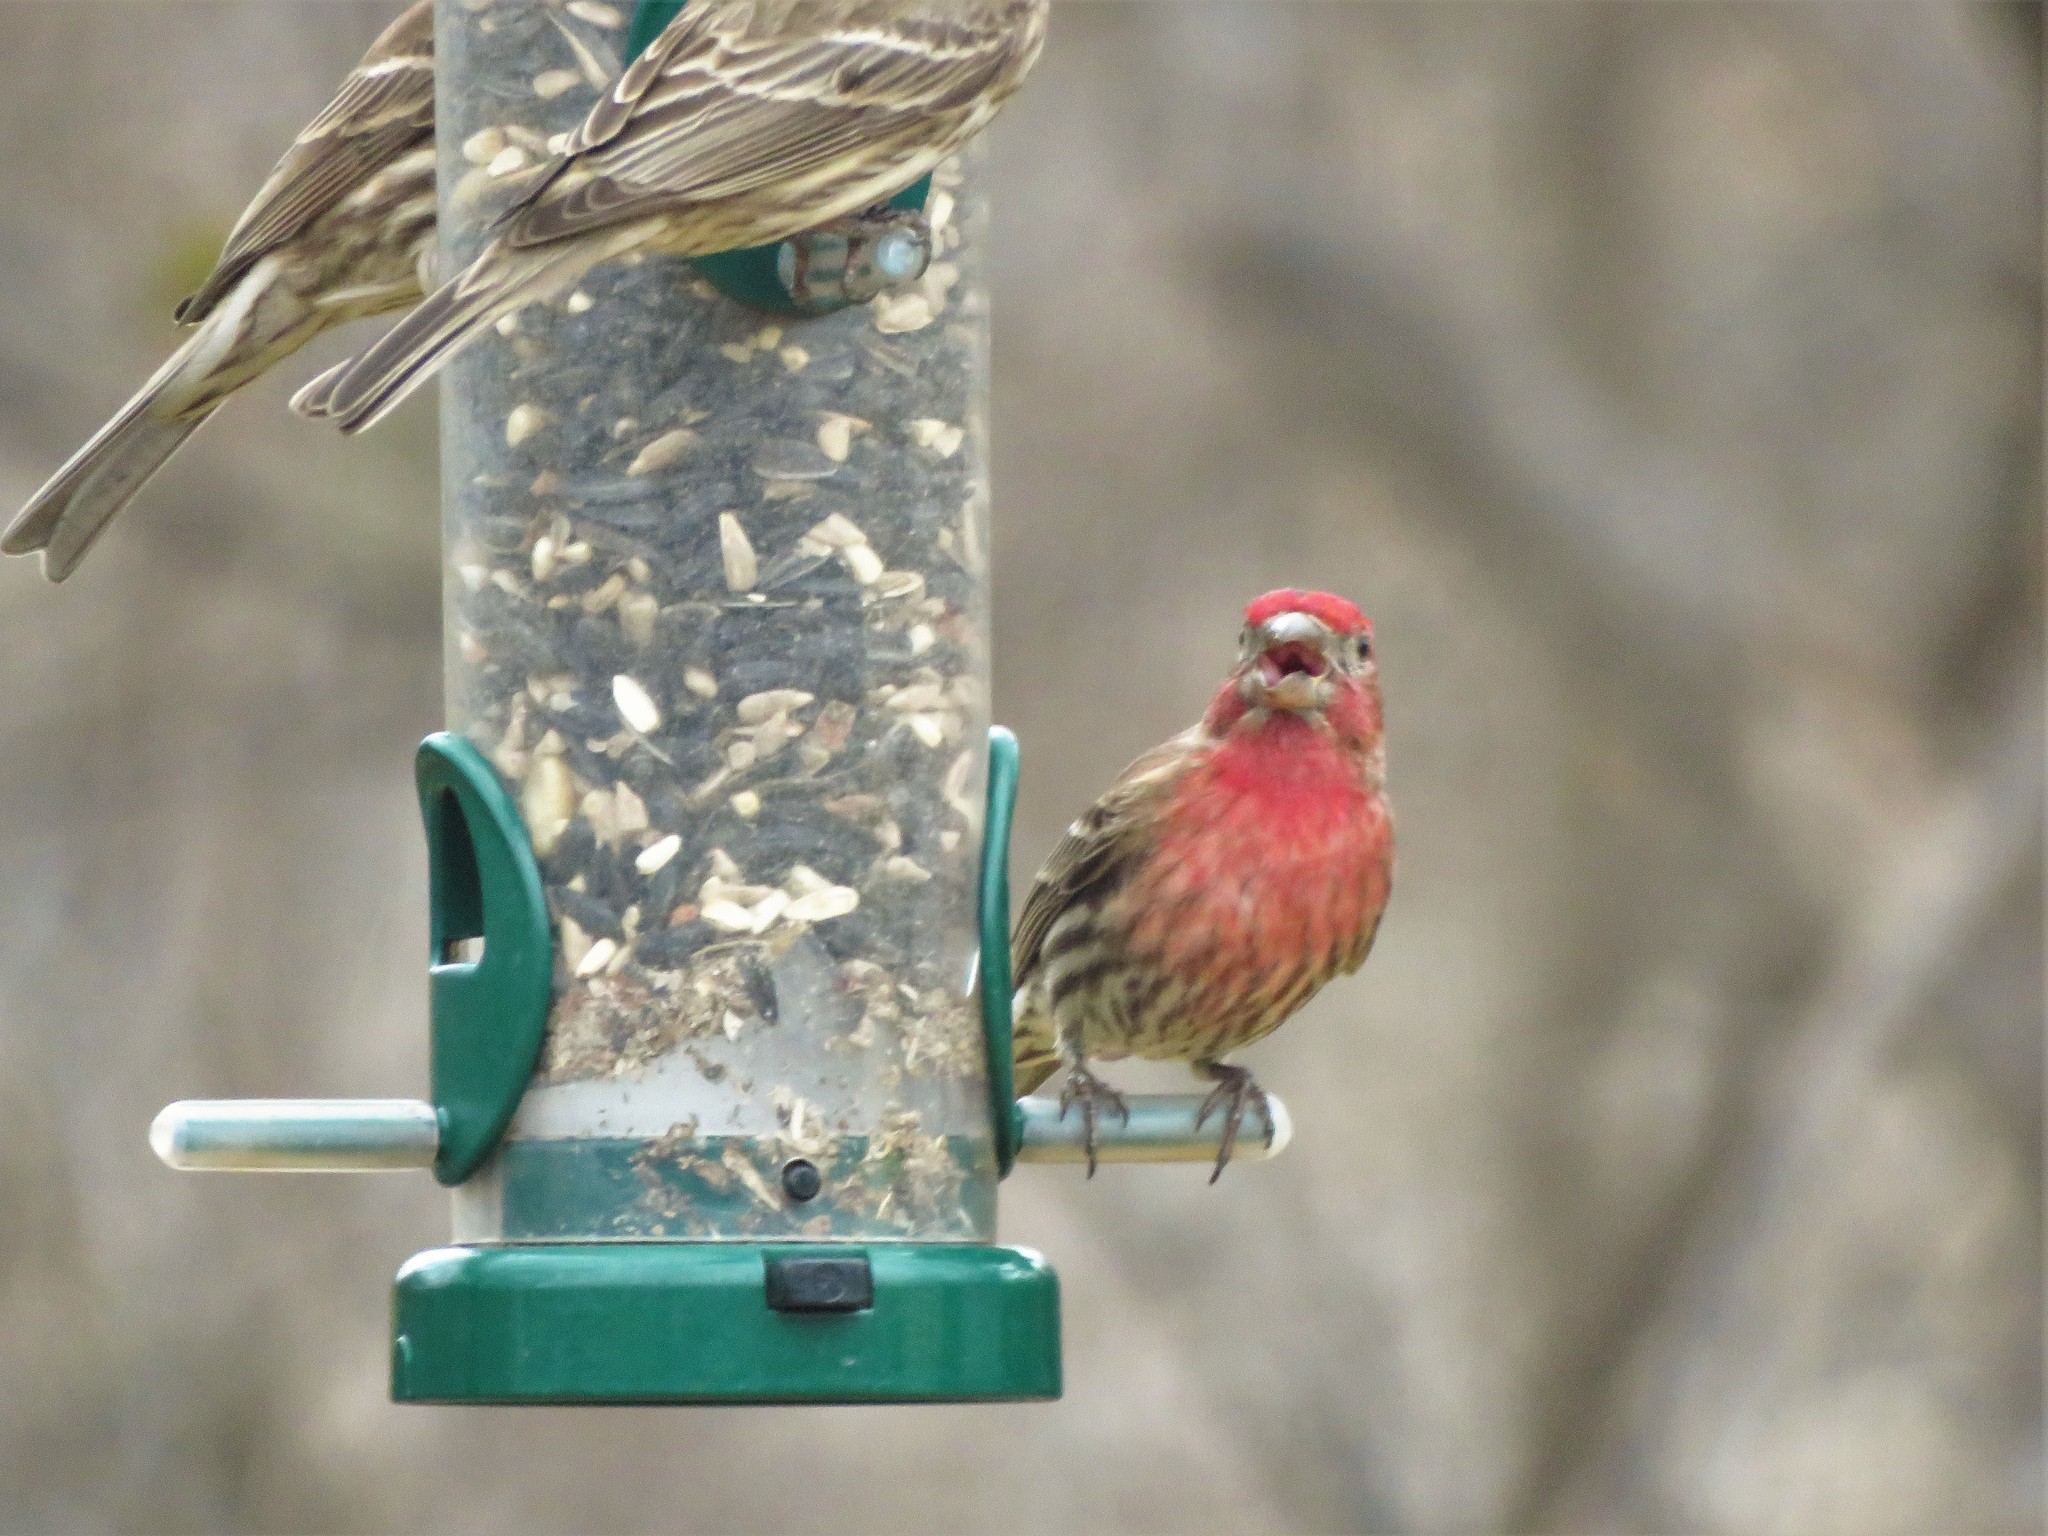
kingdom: Animalia
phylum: Chordata
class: Aves
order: Passeriformes
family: Fringillidae
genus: Haemorhous
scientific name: Haemorhous mexicanus
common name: House finch
